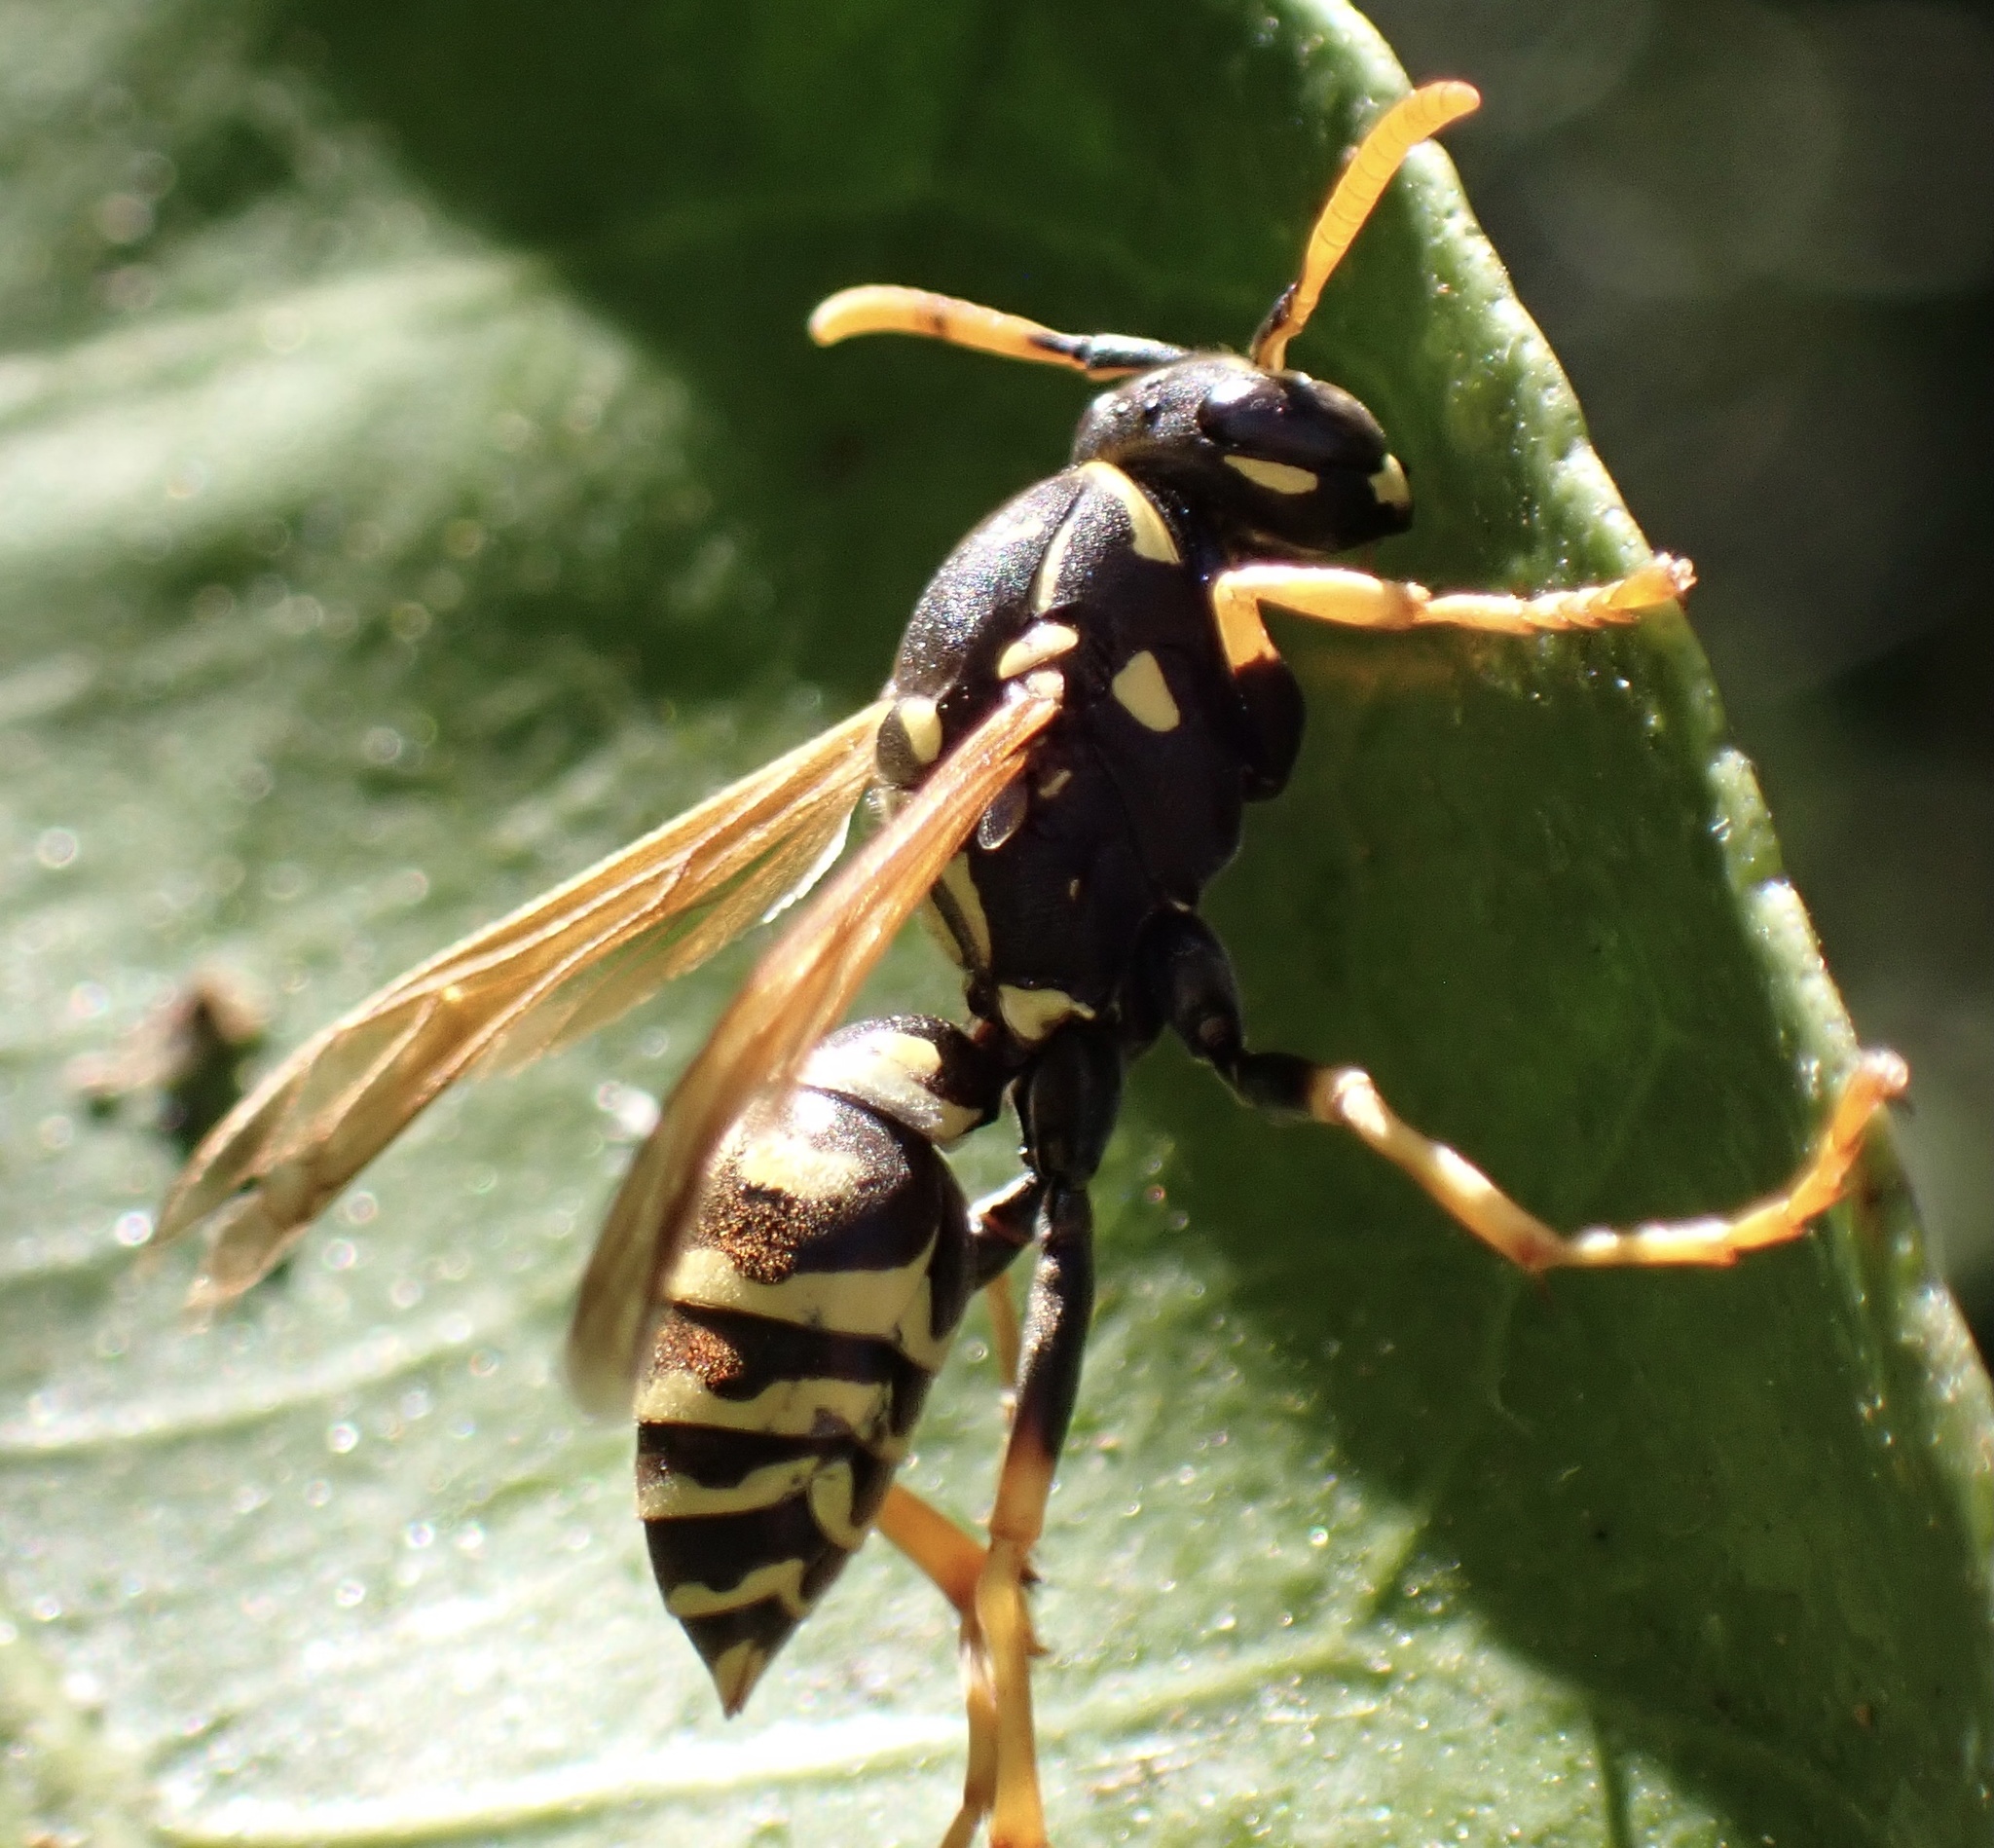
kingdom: Animalia
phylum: Arthropoda
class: Insecta
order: Hymenoptera
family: Eumenidae
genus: Polistes
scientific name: Polistes dominula
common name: Paper wasp
